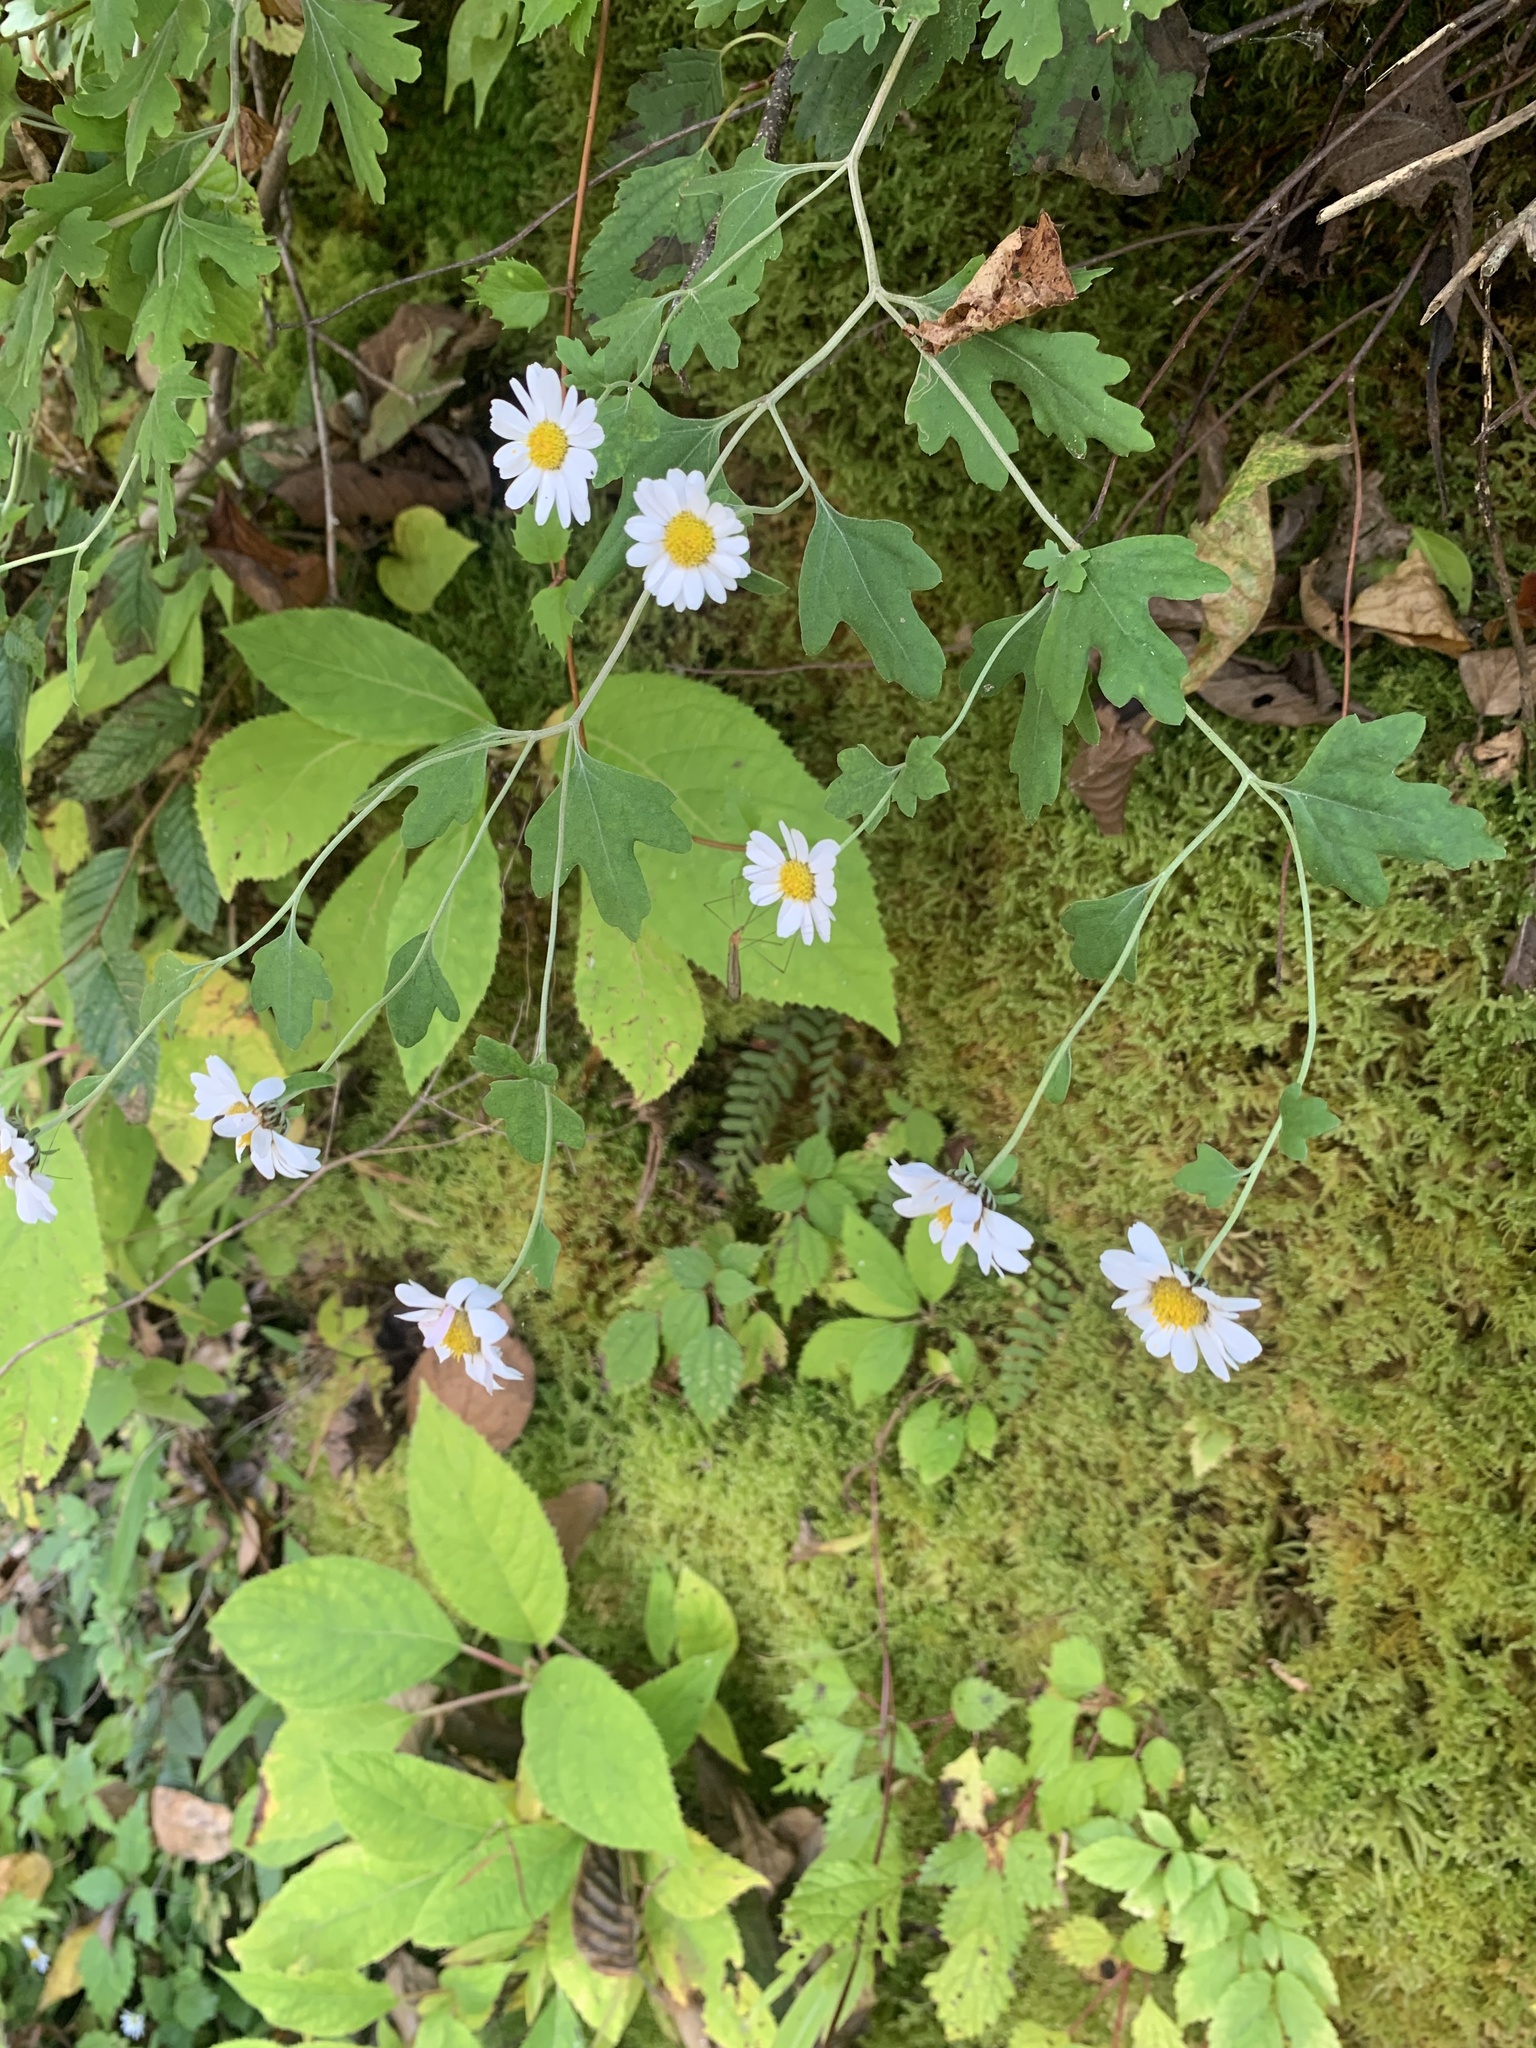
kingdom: Plantae
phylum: Tracheophyta
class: Magnoliopsida
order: Asterales
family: Asteraceae
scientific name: Asteraceae
